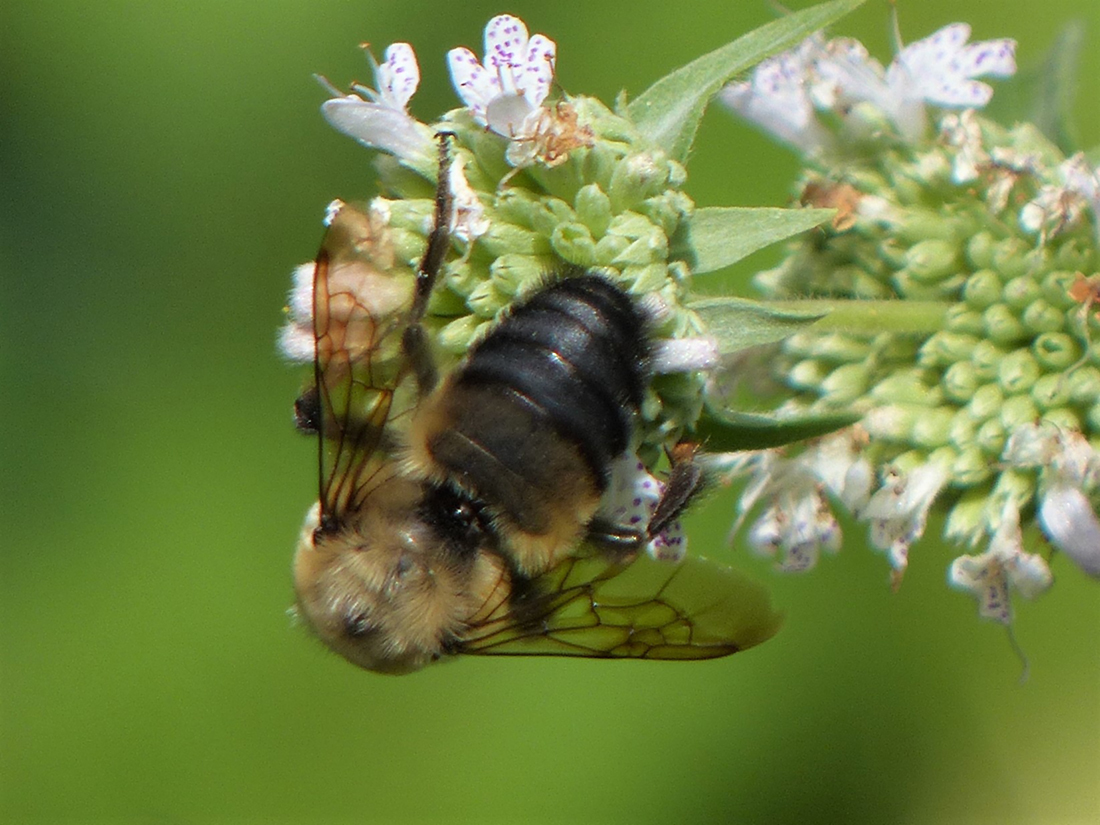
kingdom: Animalia
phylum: Arthropoda
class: Insecta
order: Hymenoptera
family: Apidae
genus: Bombus
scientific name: Bombus griseocollis
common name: Brown-belted bumble bee
